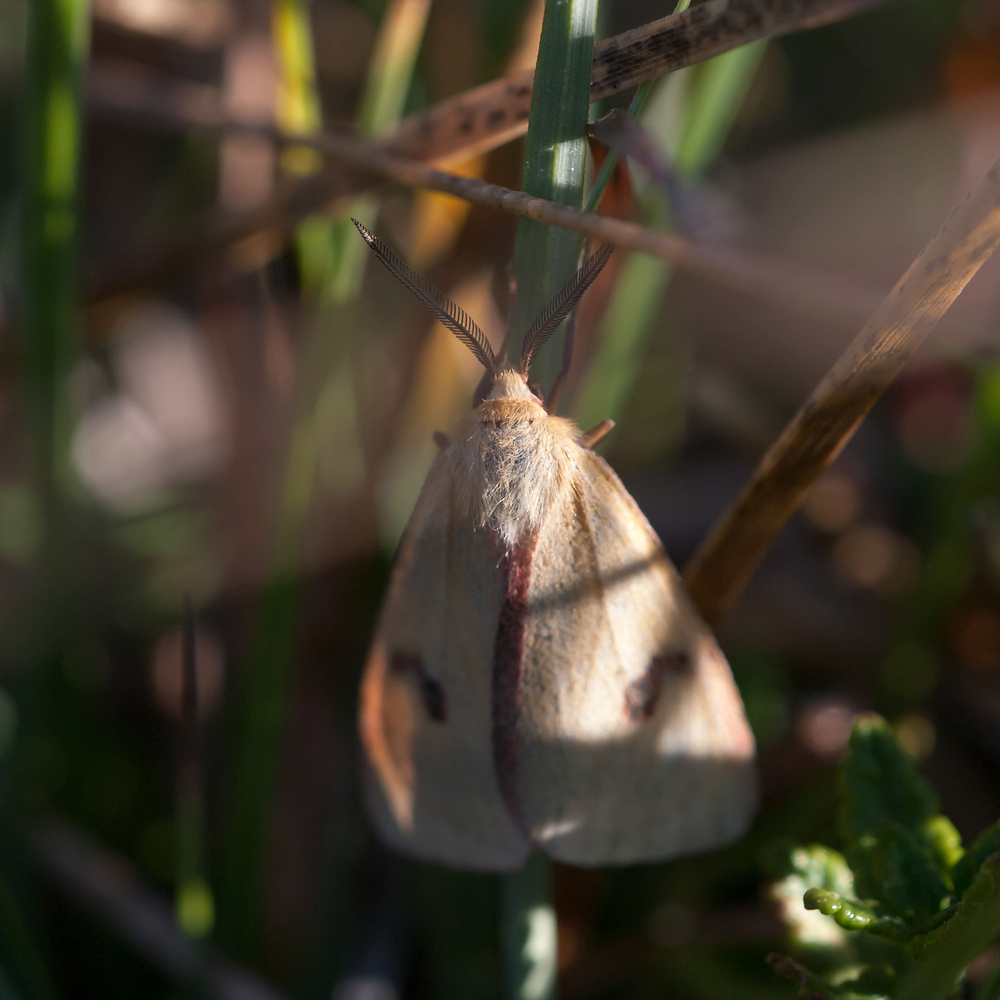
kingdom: Animalia
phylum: Arthropoda
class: Insecta
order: Lepidoptera
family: Erebidae
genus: Diacrisia
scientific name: Diacrisia sannio
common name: Clouded buff
